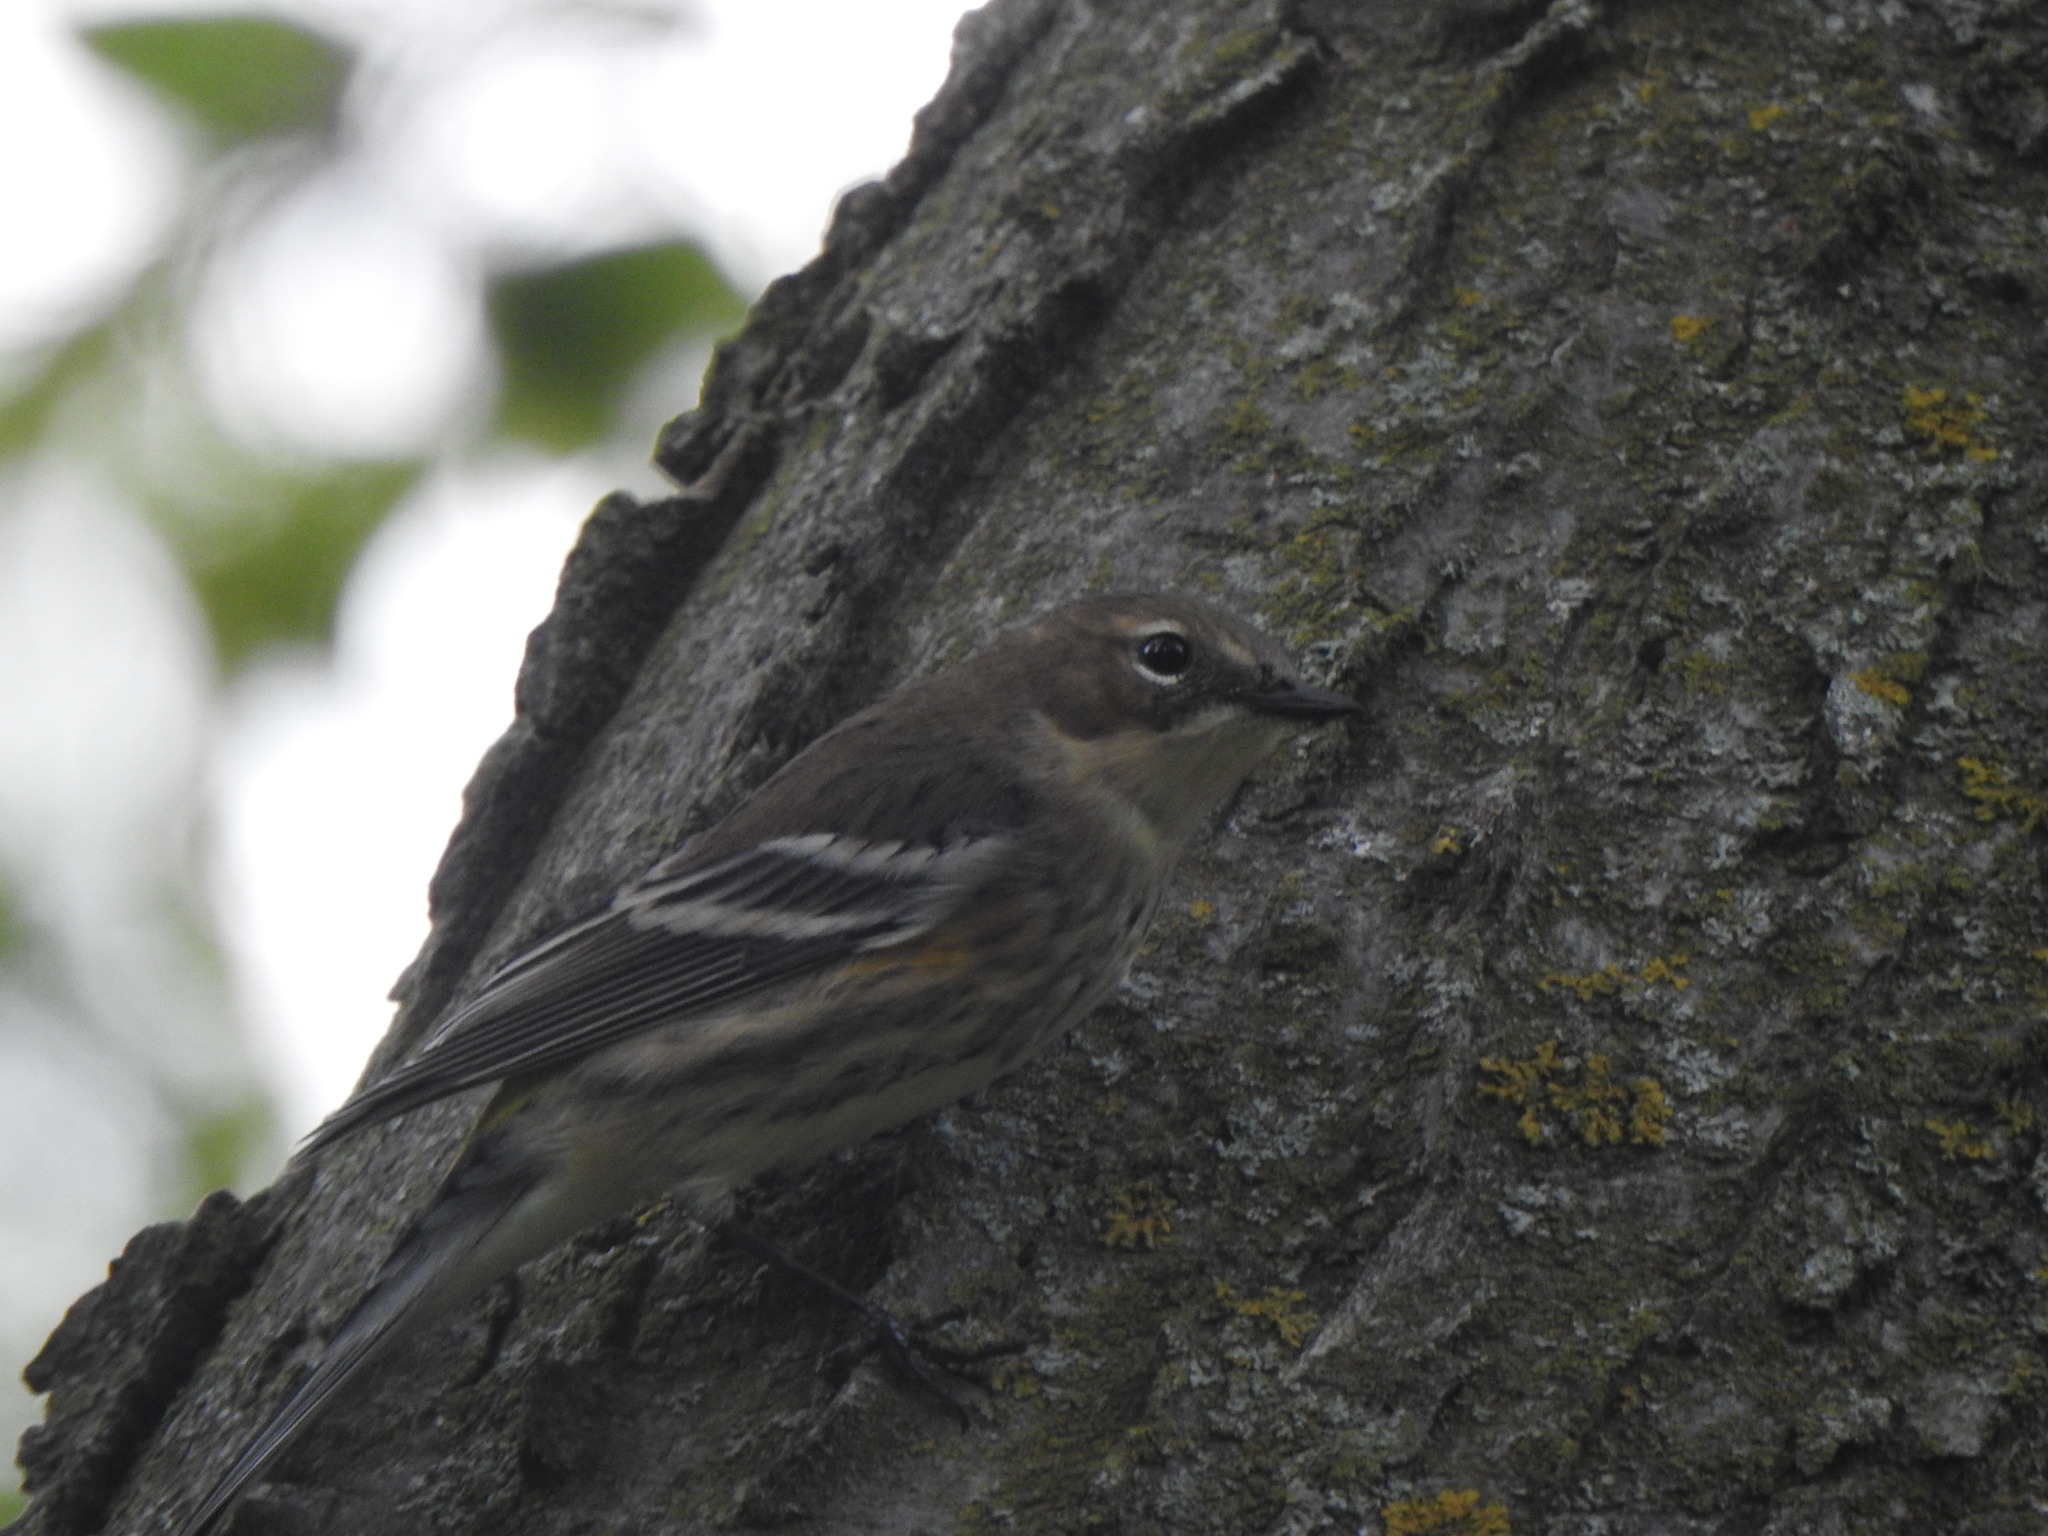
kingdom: Animalia
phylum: Chordata
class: Aves
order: Passeriformes
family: Parulidae
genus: Setophaga
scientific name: Setophaga coronata
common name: Myrtle warbler
